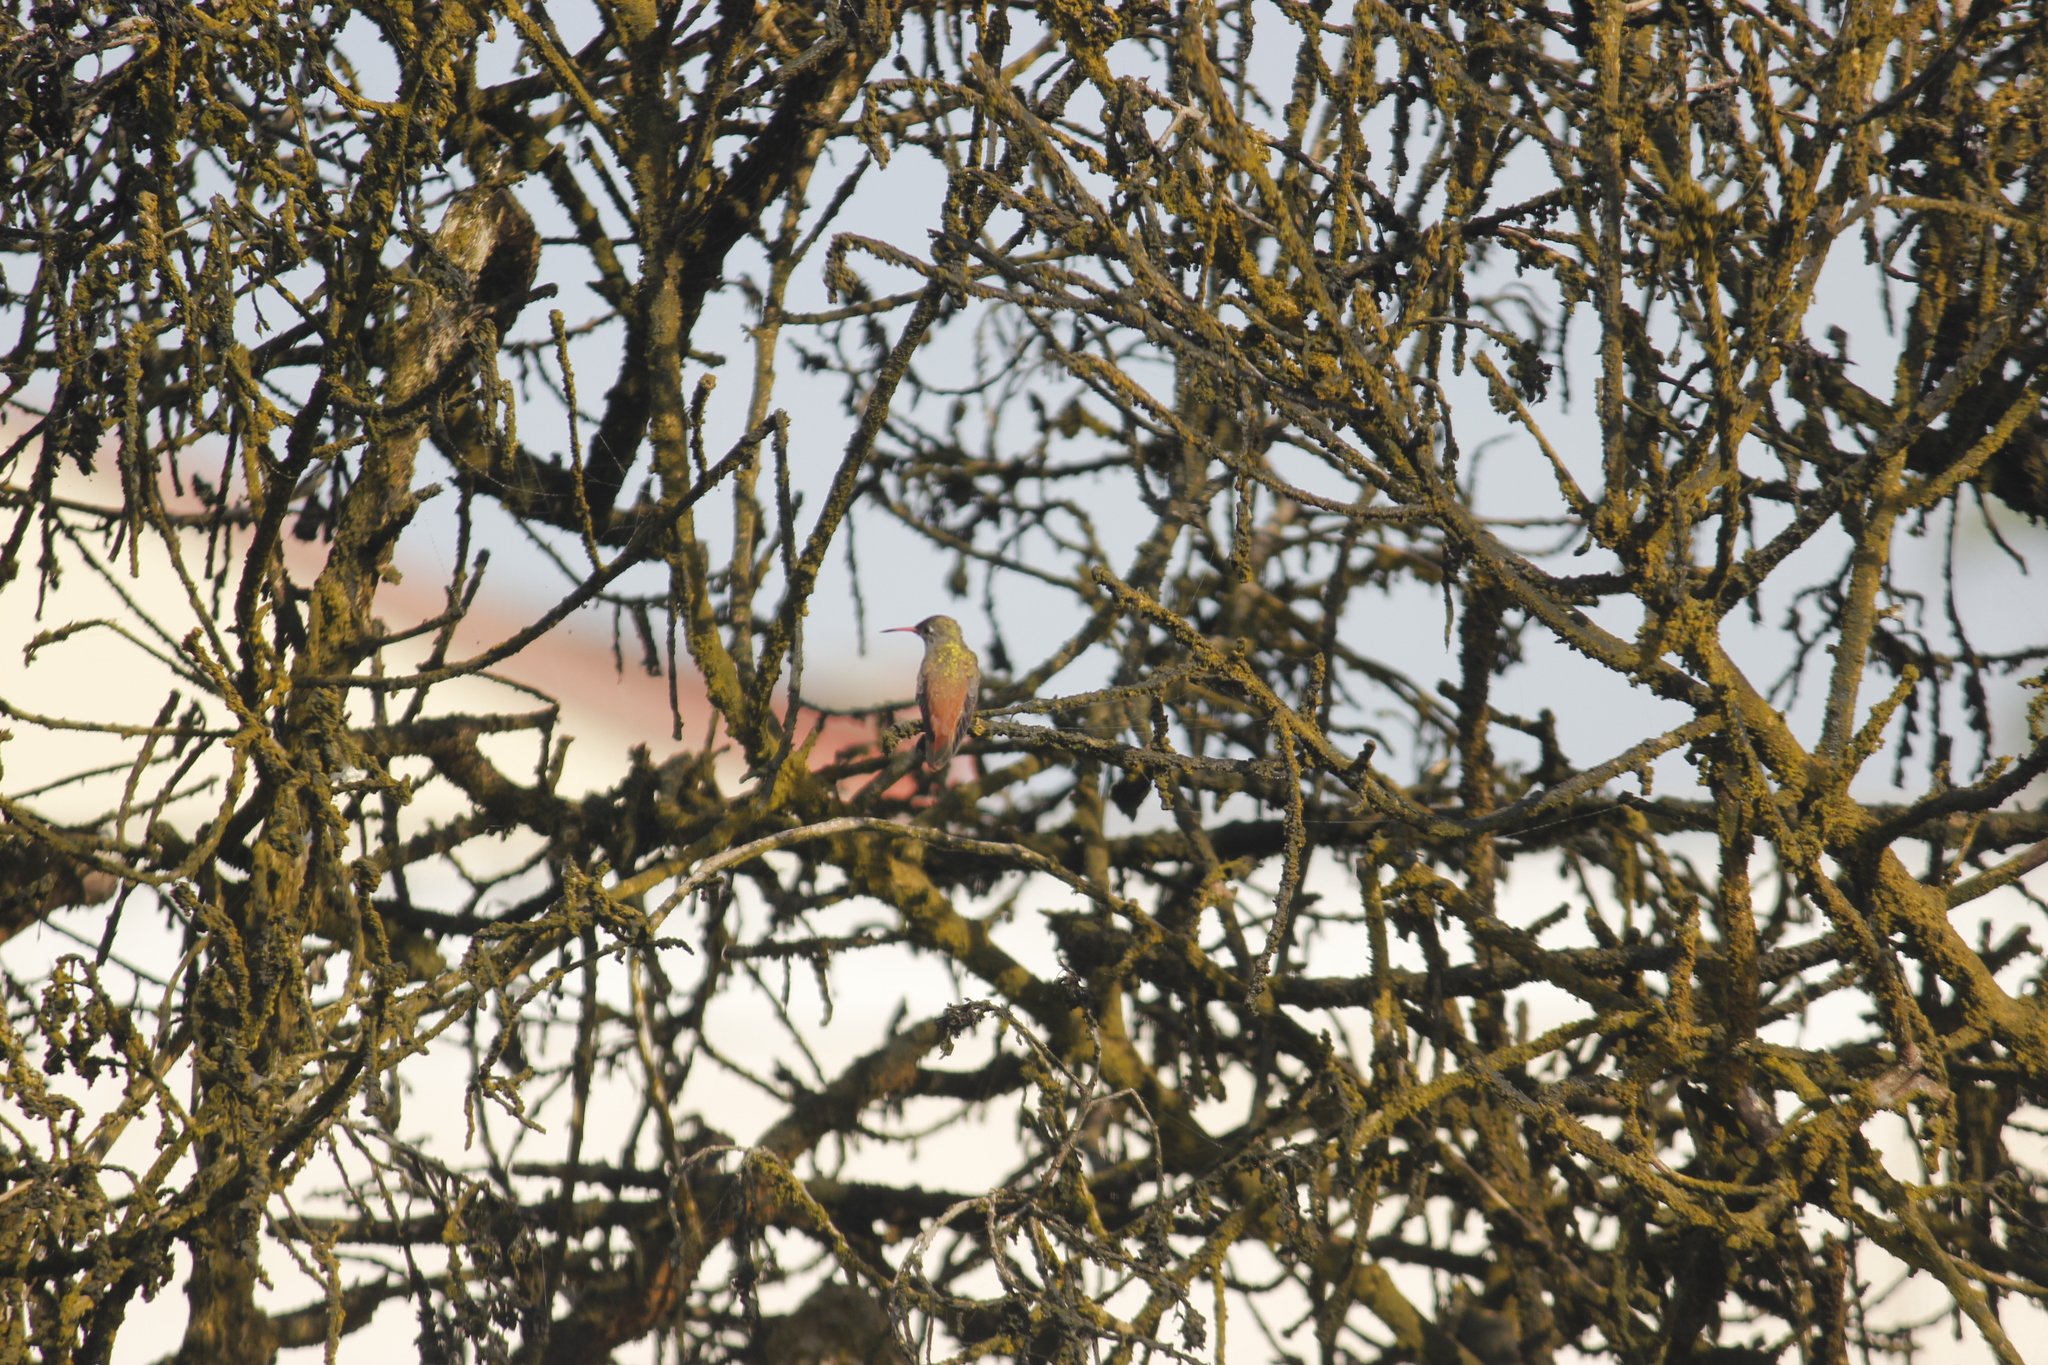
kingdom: Animalia
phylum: Chordata
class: Aves
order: Apodiformes
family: Trochilidae
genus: Amazilis
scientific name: Amazilis amazilia
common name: Amazilia hummingbird
